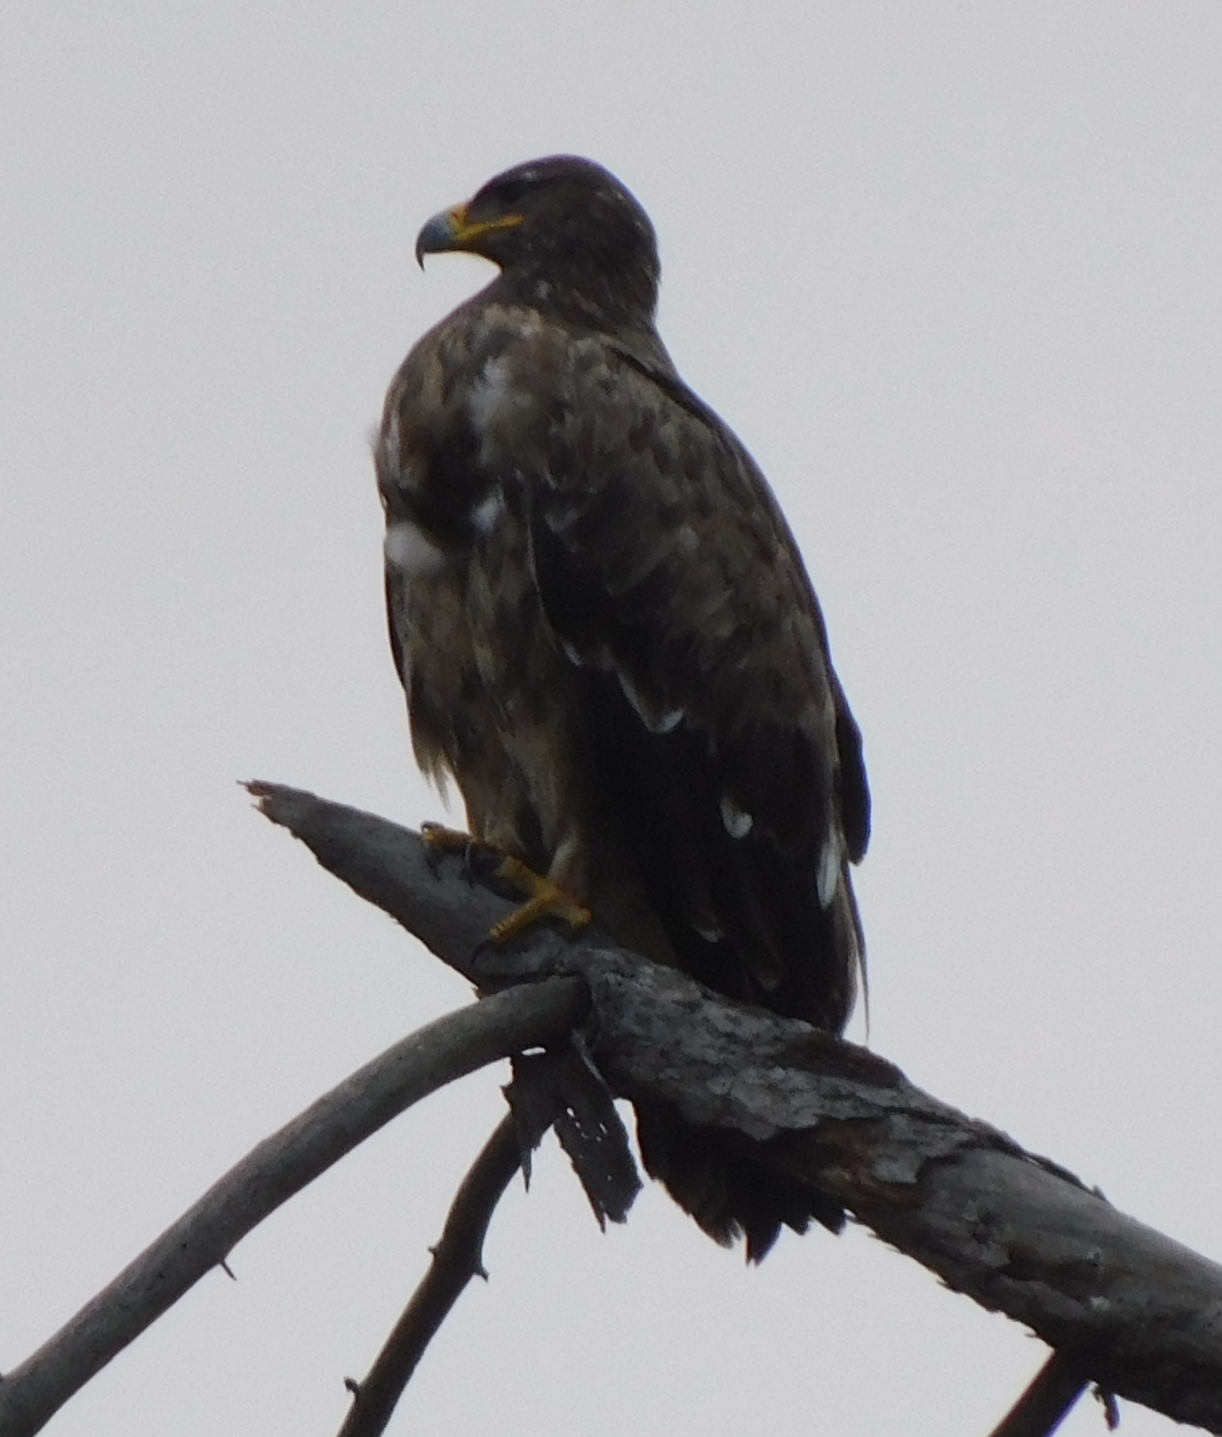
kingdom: Animalia
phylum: Chordata
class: Aves
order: Accipitriformes
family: Accipitridae
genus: Aquila
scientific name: Aquila nipalensis
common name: Steppe eagle
